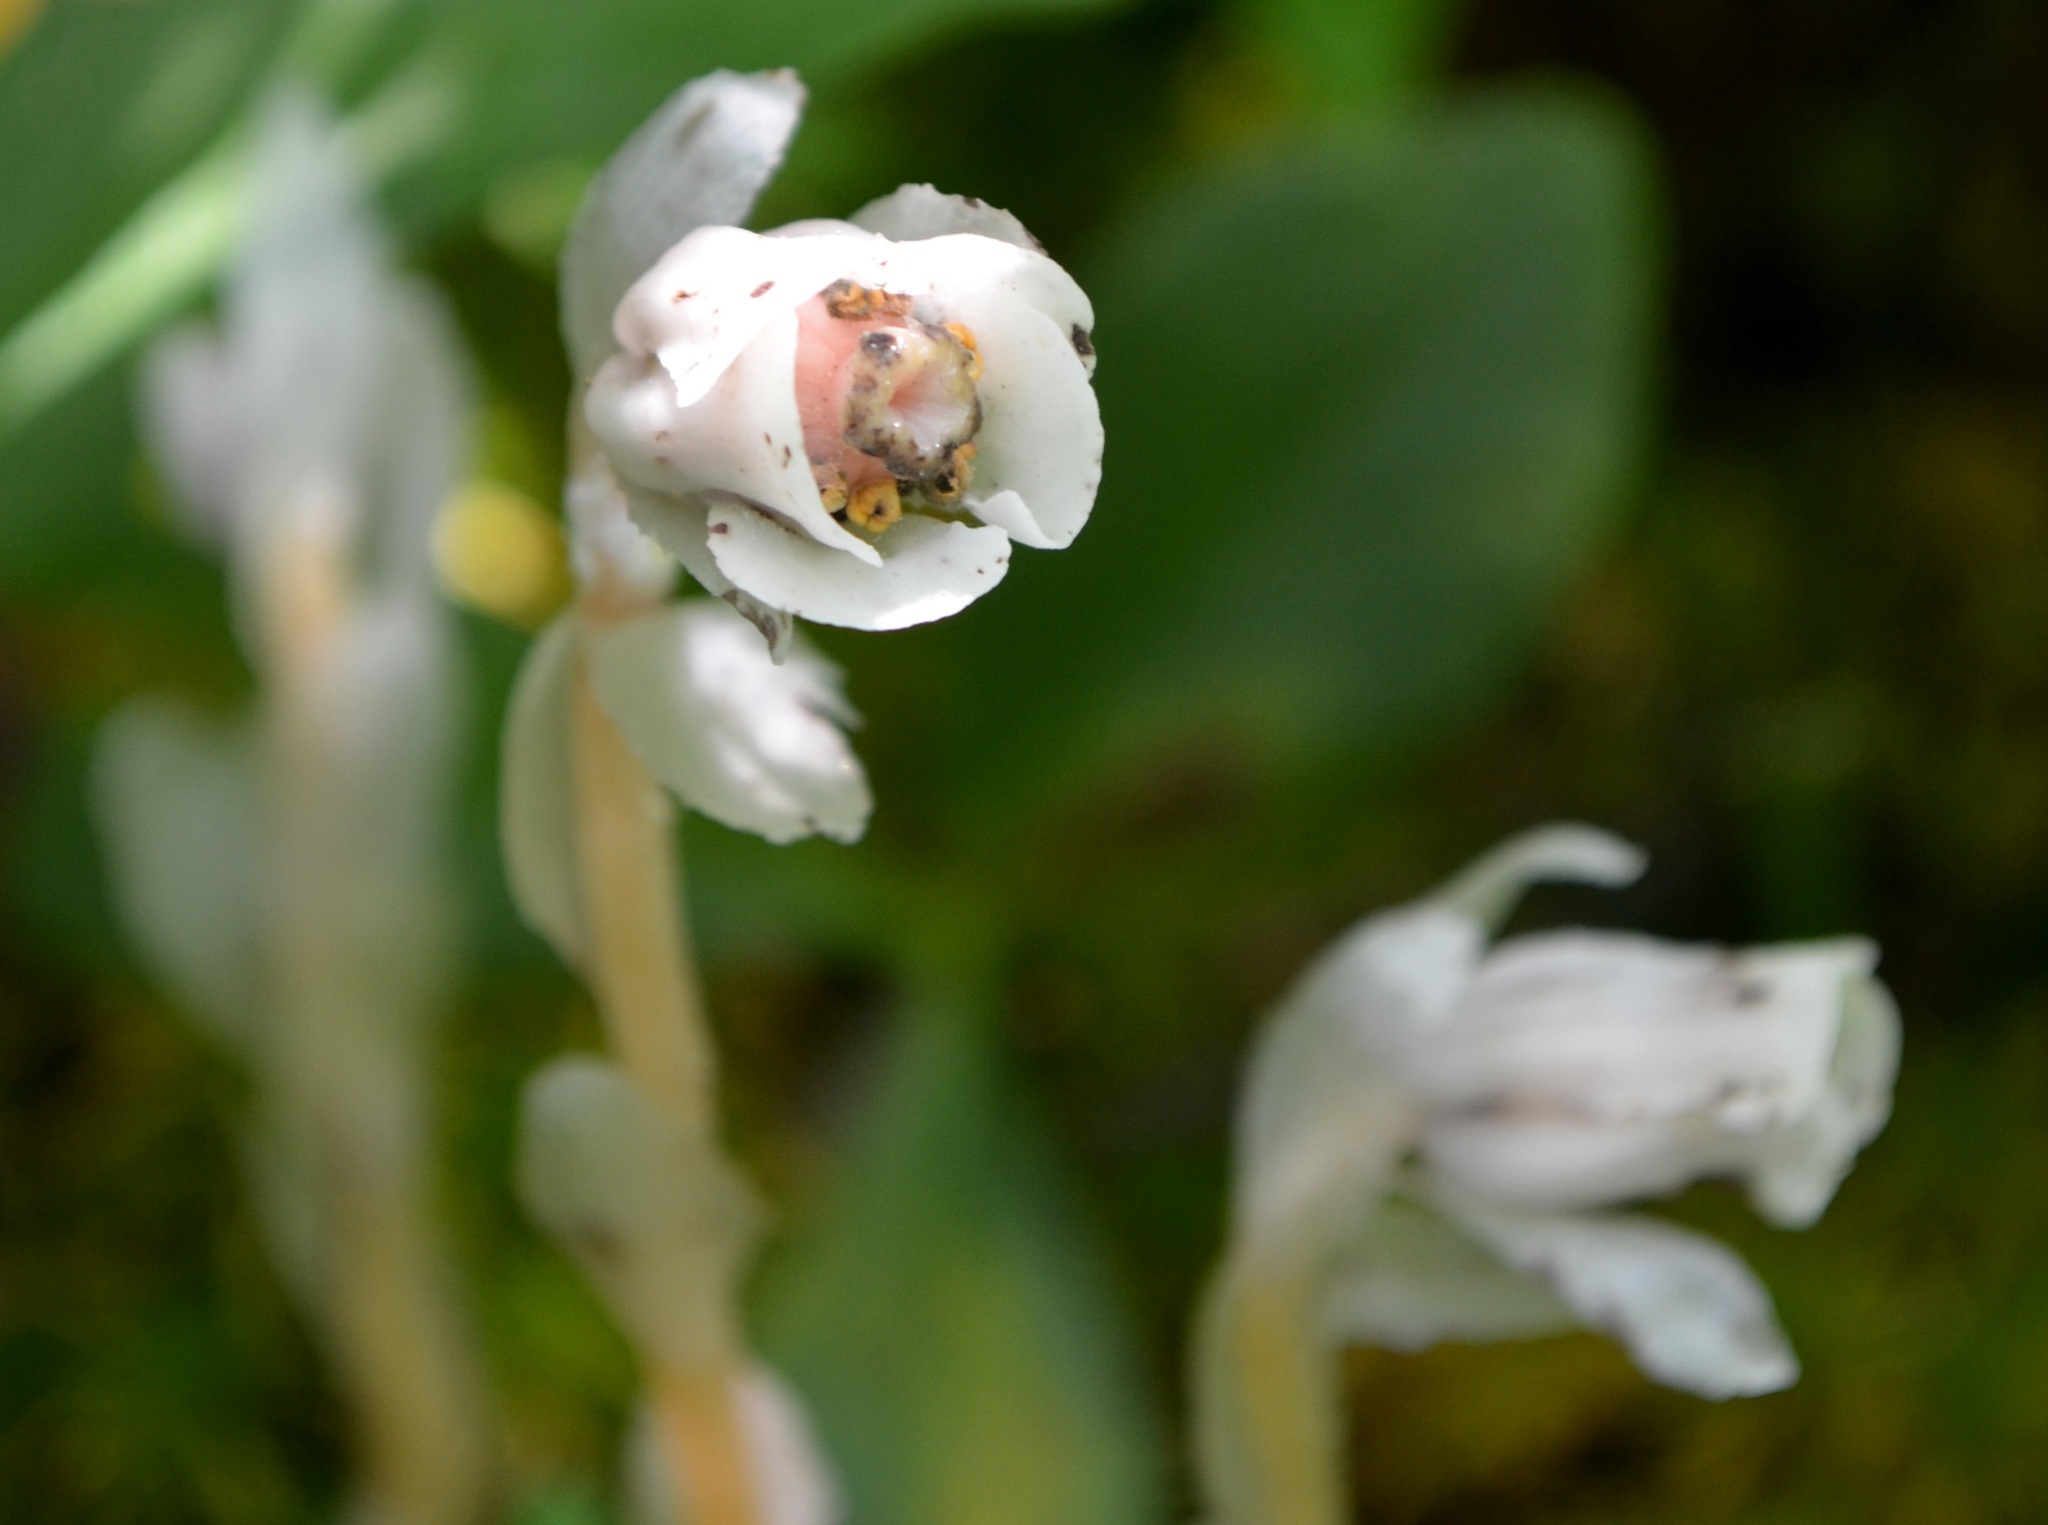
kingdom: Plantae
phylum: Tracheophyta
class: Magnoliopsida
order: Ericales
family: Ericaceae
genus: Monotropa
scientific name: Monotropa uniflora
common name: Convulsion root
